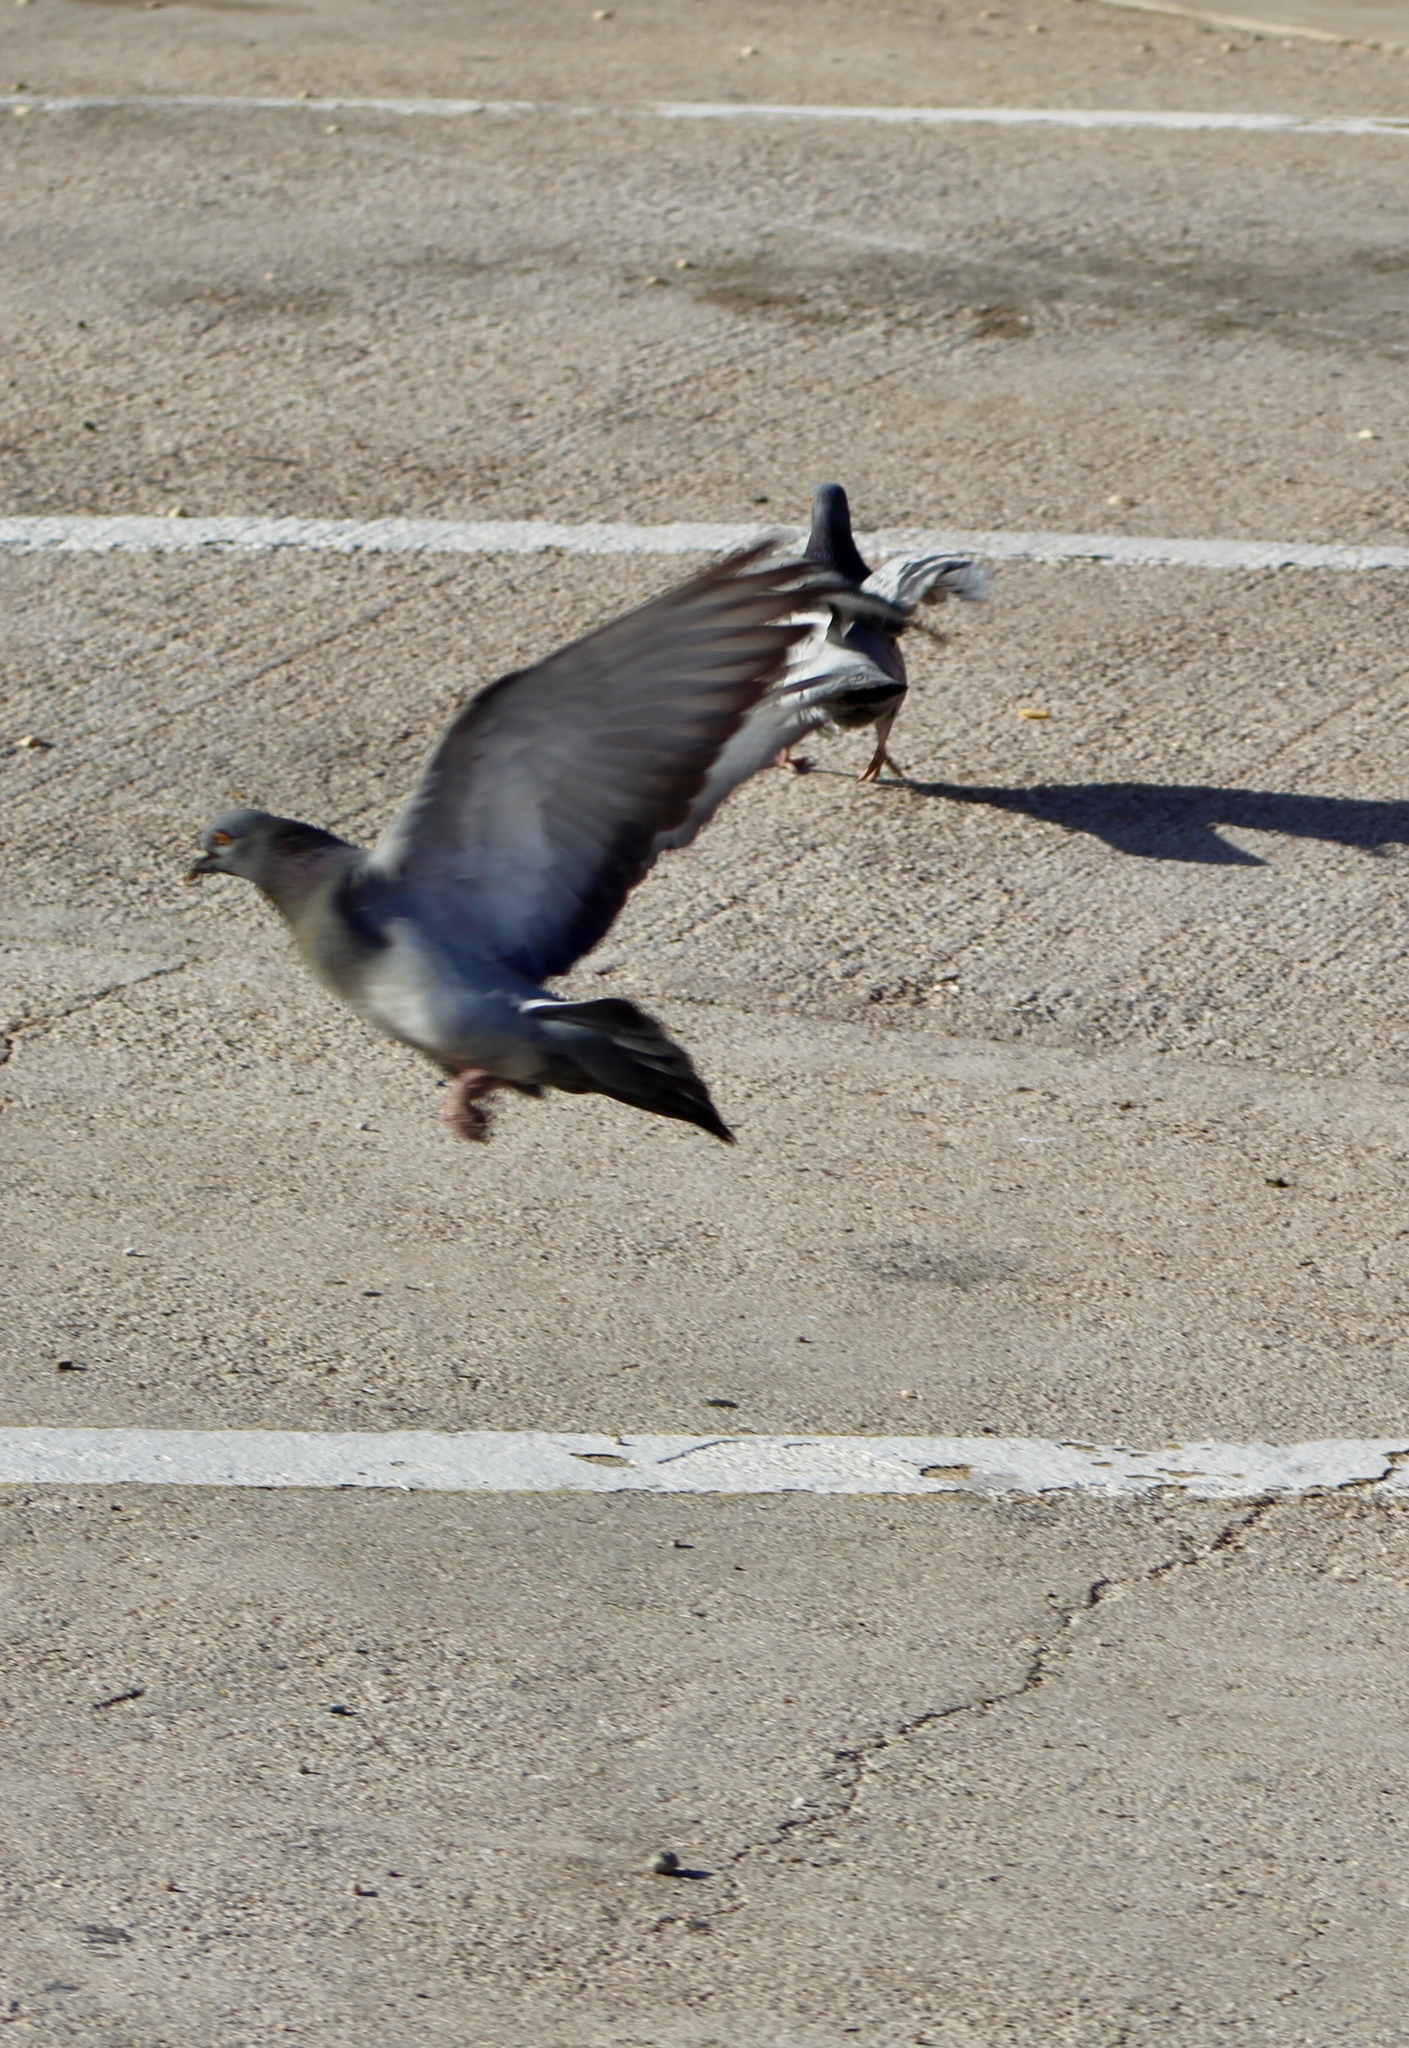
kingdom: Animalia
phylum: Chordata
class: Aves
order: Columbiformes
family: Columbidae
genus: Columba
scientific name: Columba livia
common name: Rock pigeon
